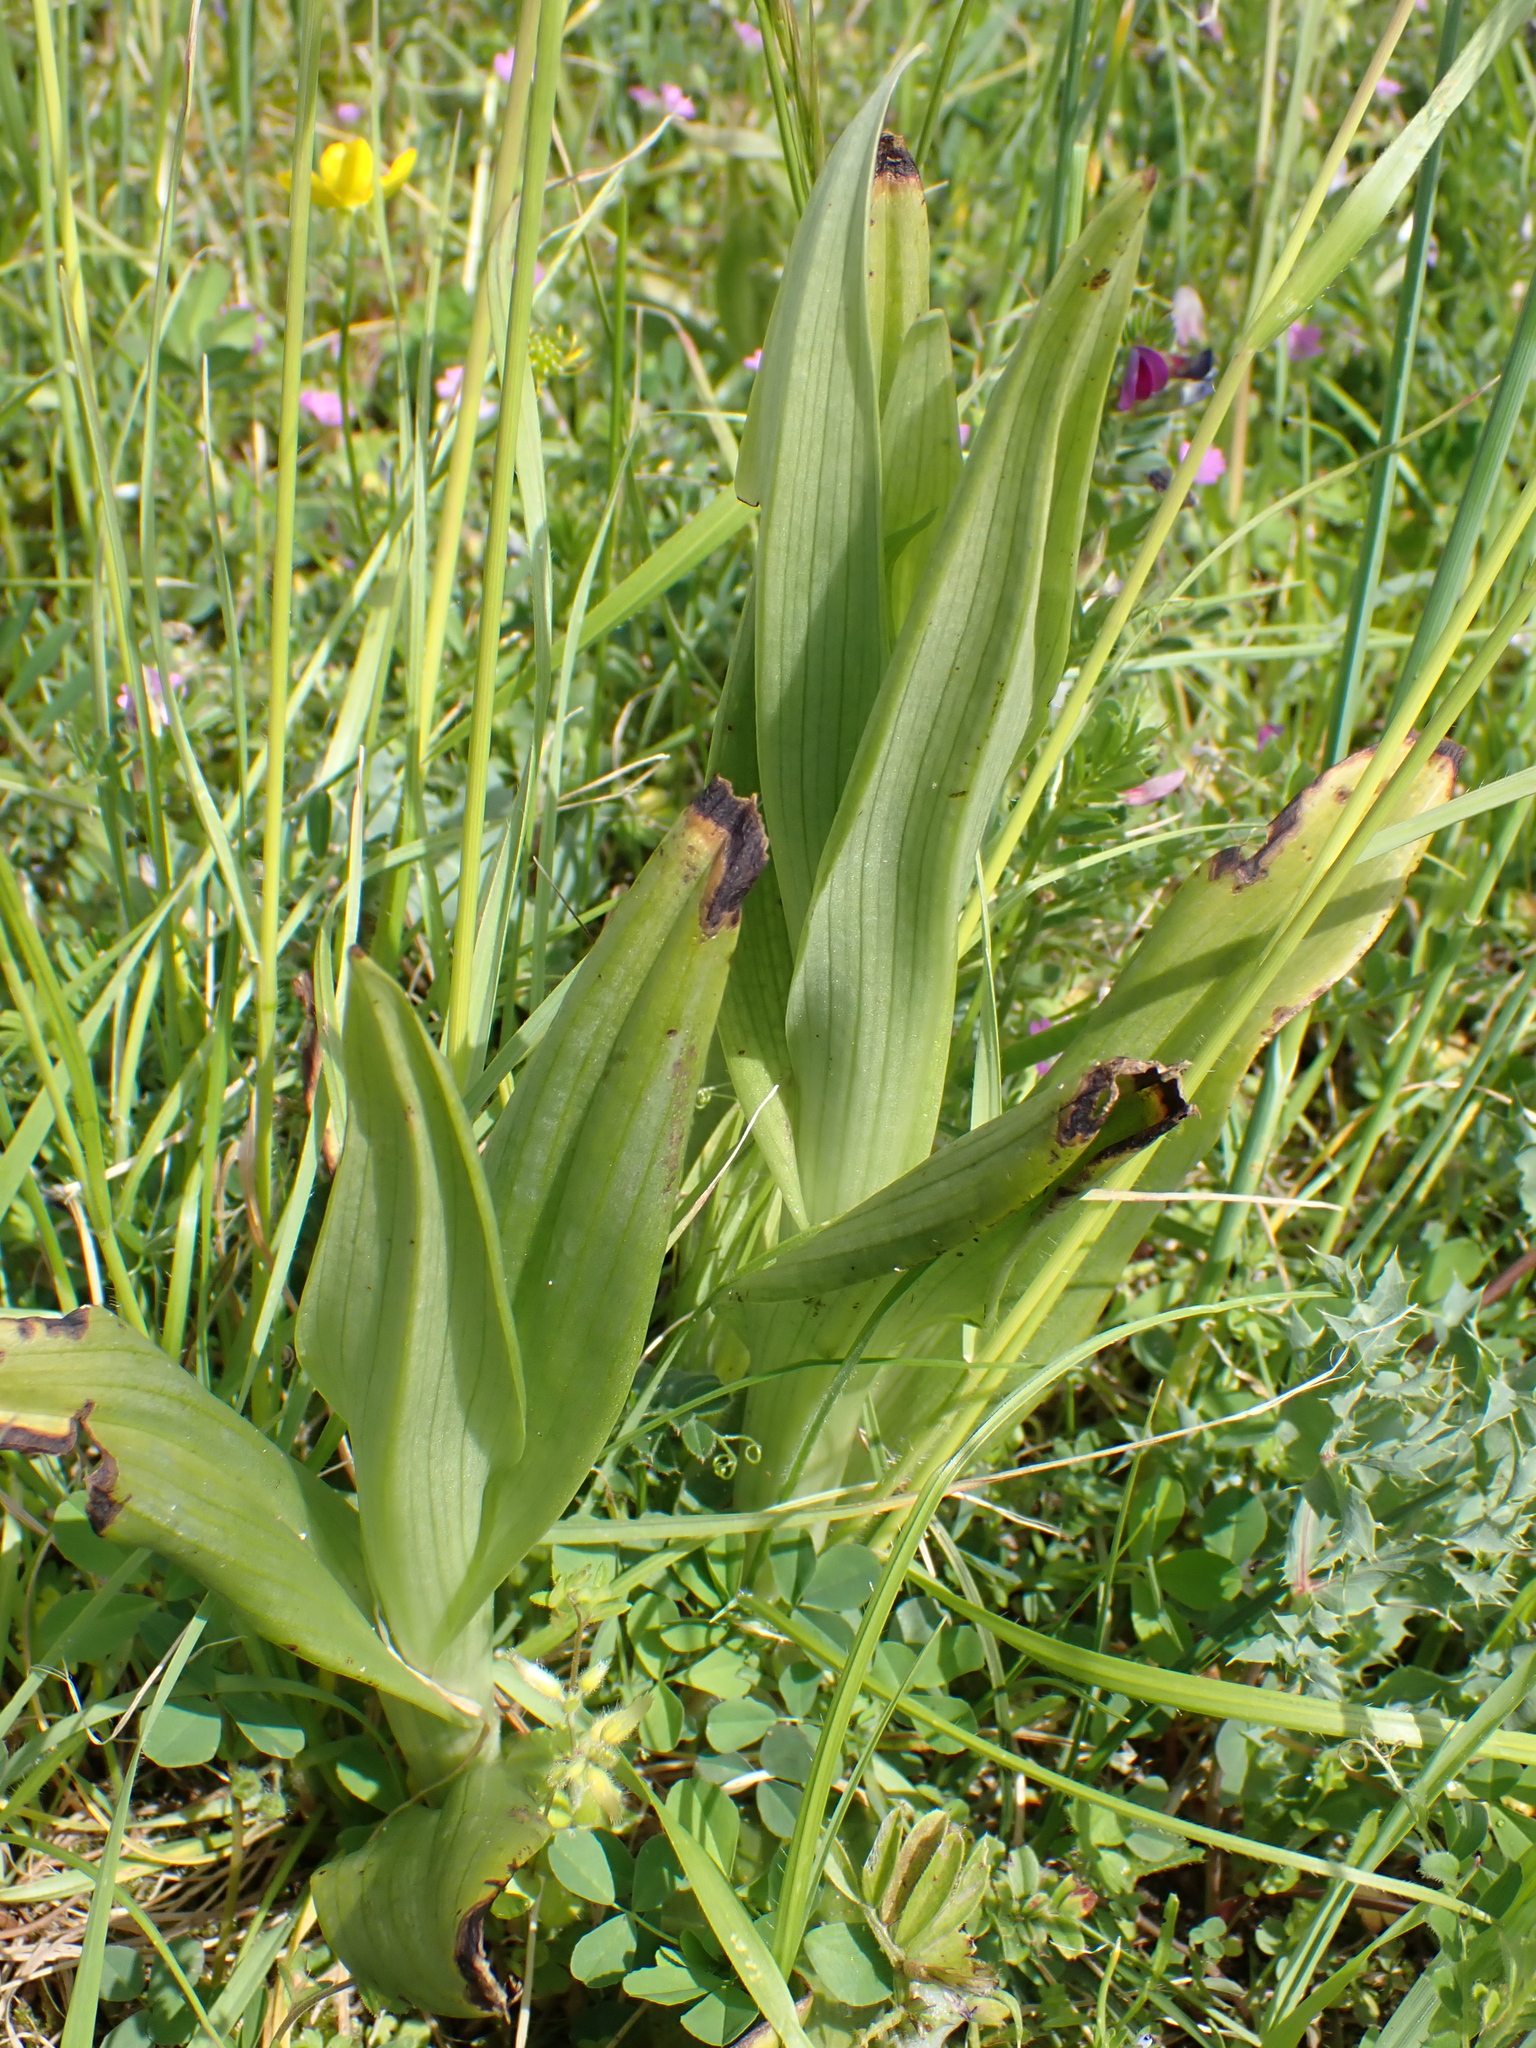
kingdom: Plantae
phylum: Tracheophyta
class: Liliopsida
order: Asparagales
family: Orchidaceae
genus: Himantoglossum
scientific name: Himantoglossum hircinum
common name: Lizard orchid
